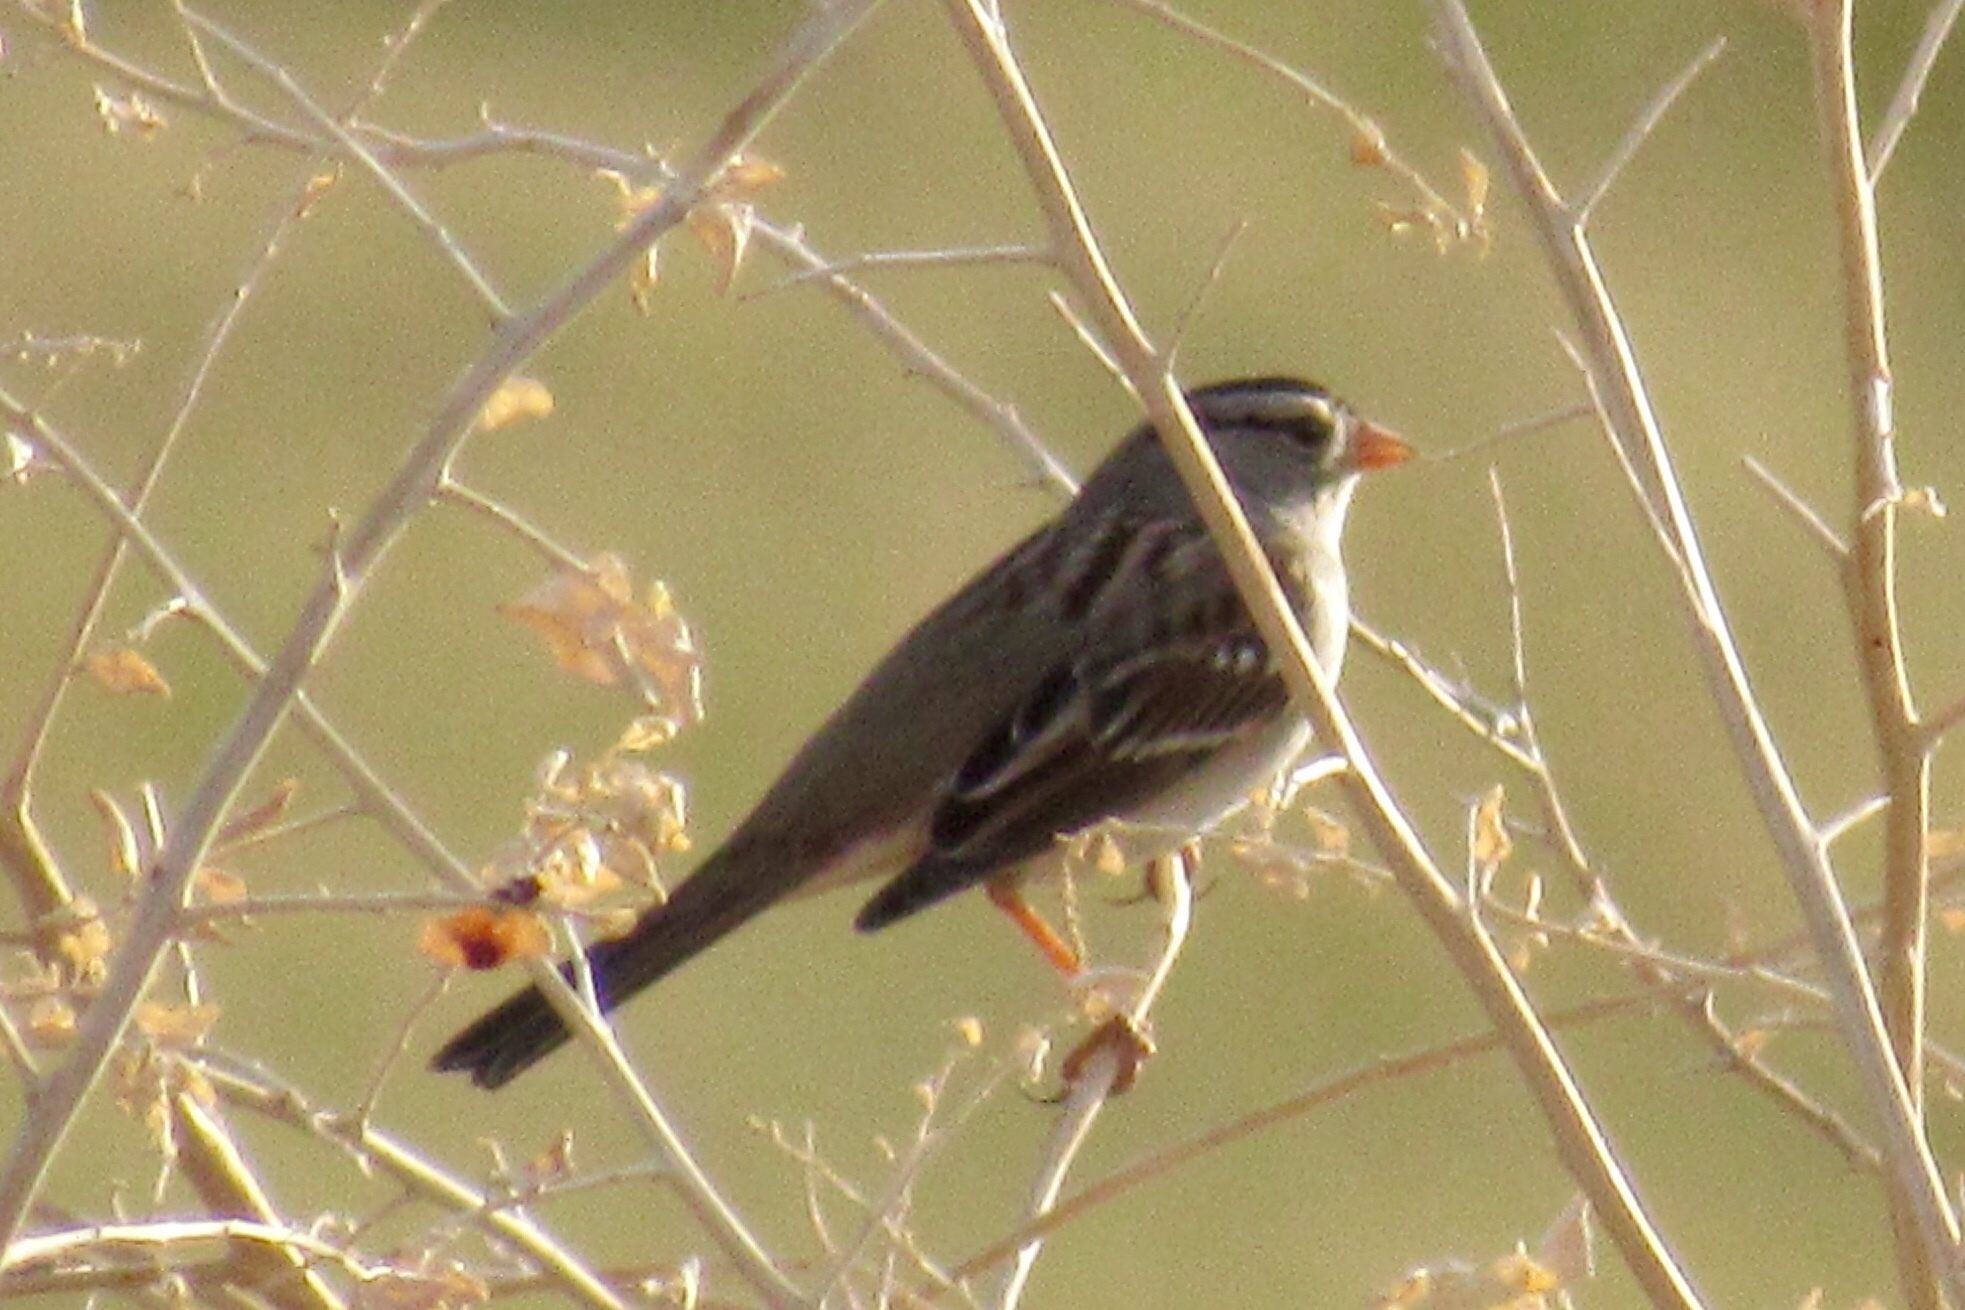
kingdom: Animalia
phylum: Chordata
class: Aves
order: Passeriformes
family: Passerellidae
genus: Zonotrichia
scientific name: Zonotrichia leucophrys
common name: White-crowned sparrow
